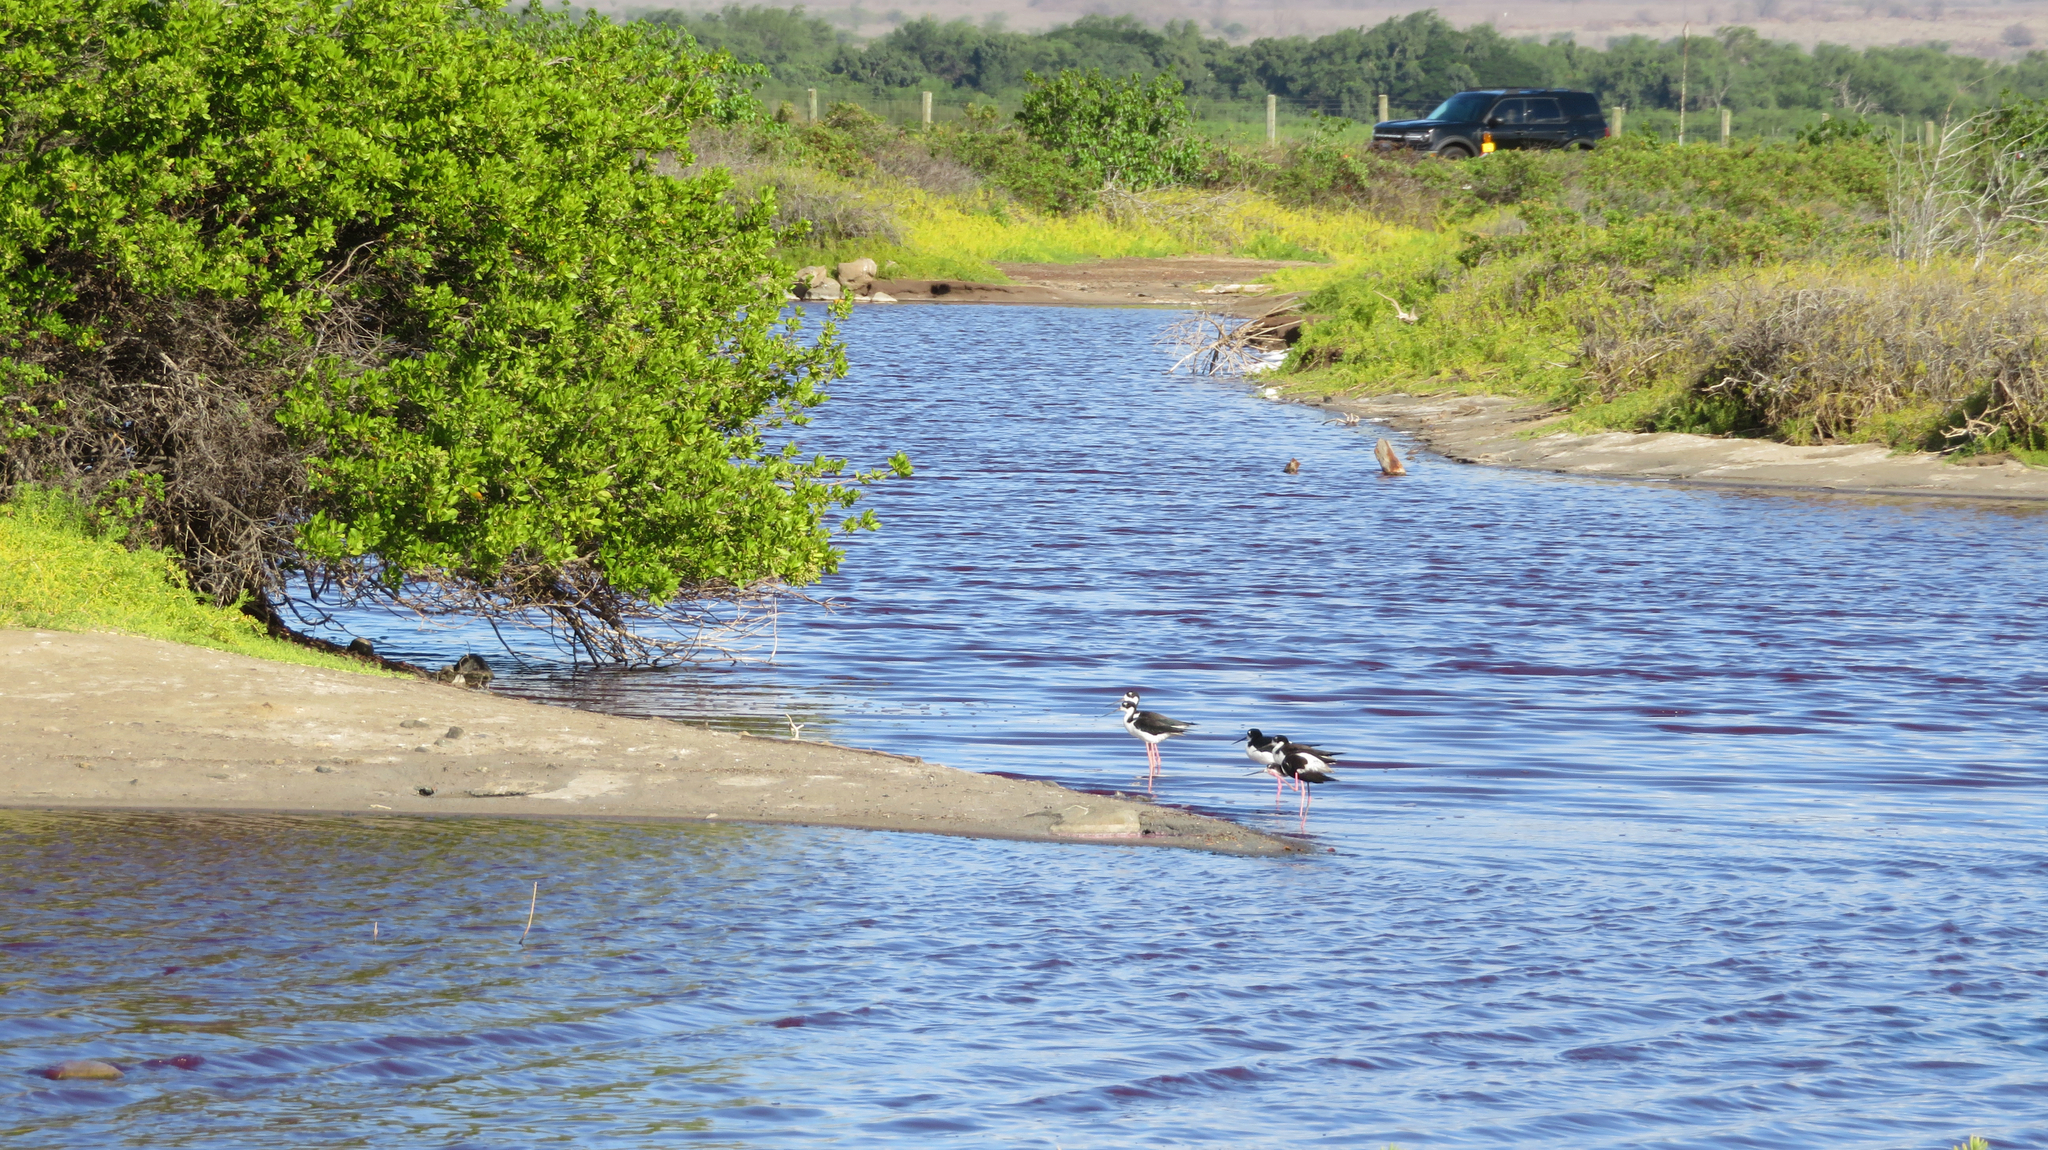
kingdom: Animalia
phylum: Chordata
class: Aves
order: Charadriiformes
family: Recurvirostridae
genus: Himantopus
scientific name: Himantopus mexicanus
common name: Black-necked stilt
